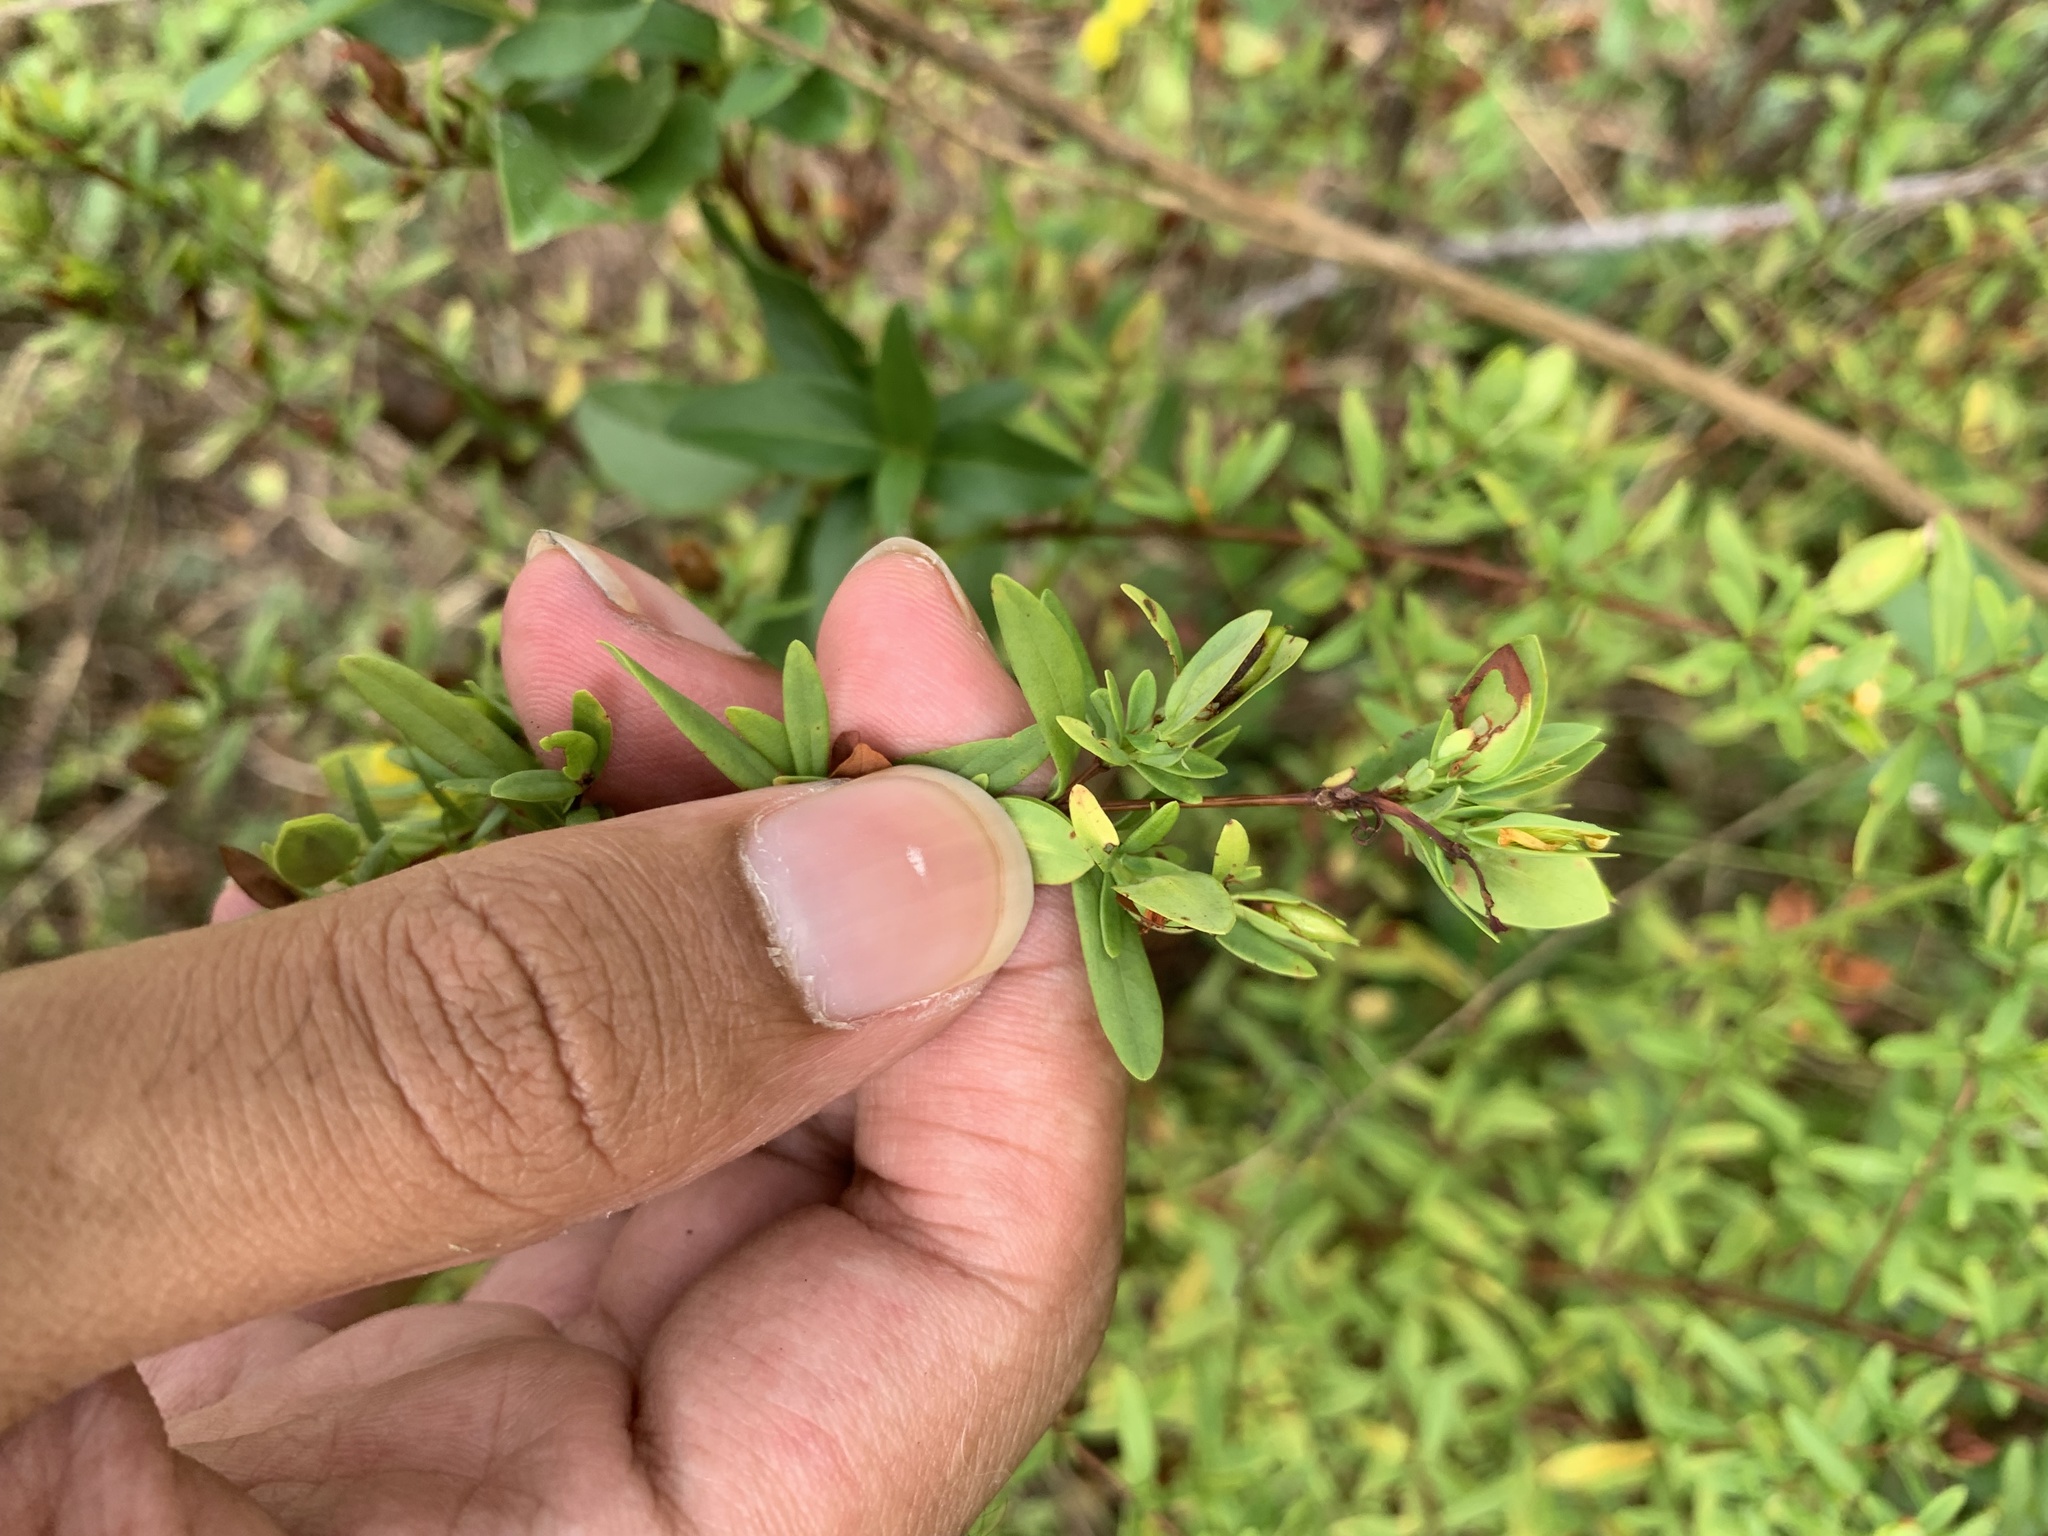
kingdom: Plantae
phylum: Tracheophyta
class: Magnoliopsida
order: Malpighiales
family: Hypericaceae
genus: Hypericum
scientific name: Hypericum hypericoides
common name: St. andrew's cross
